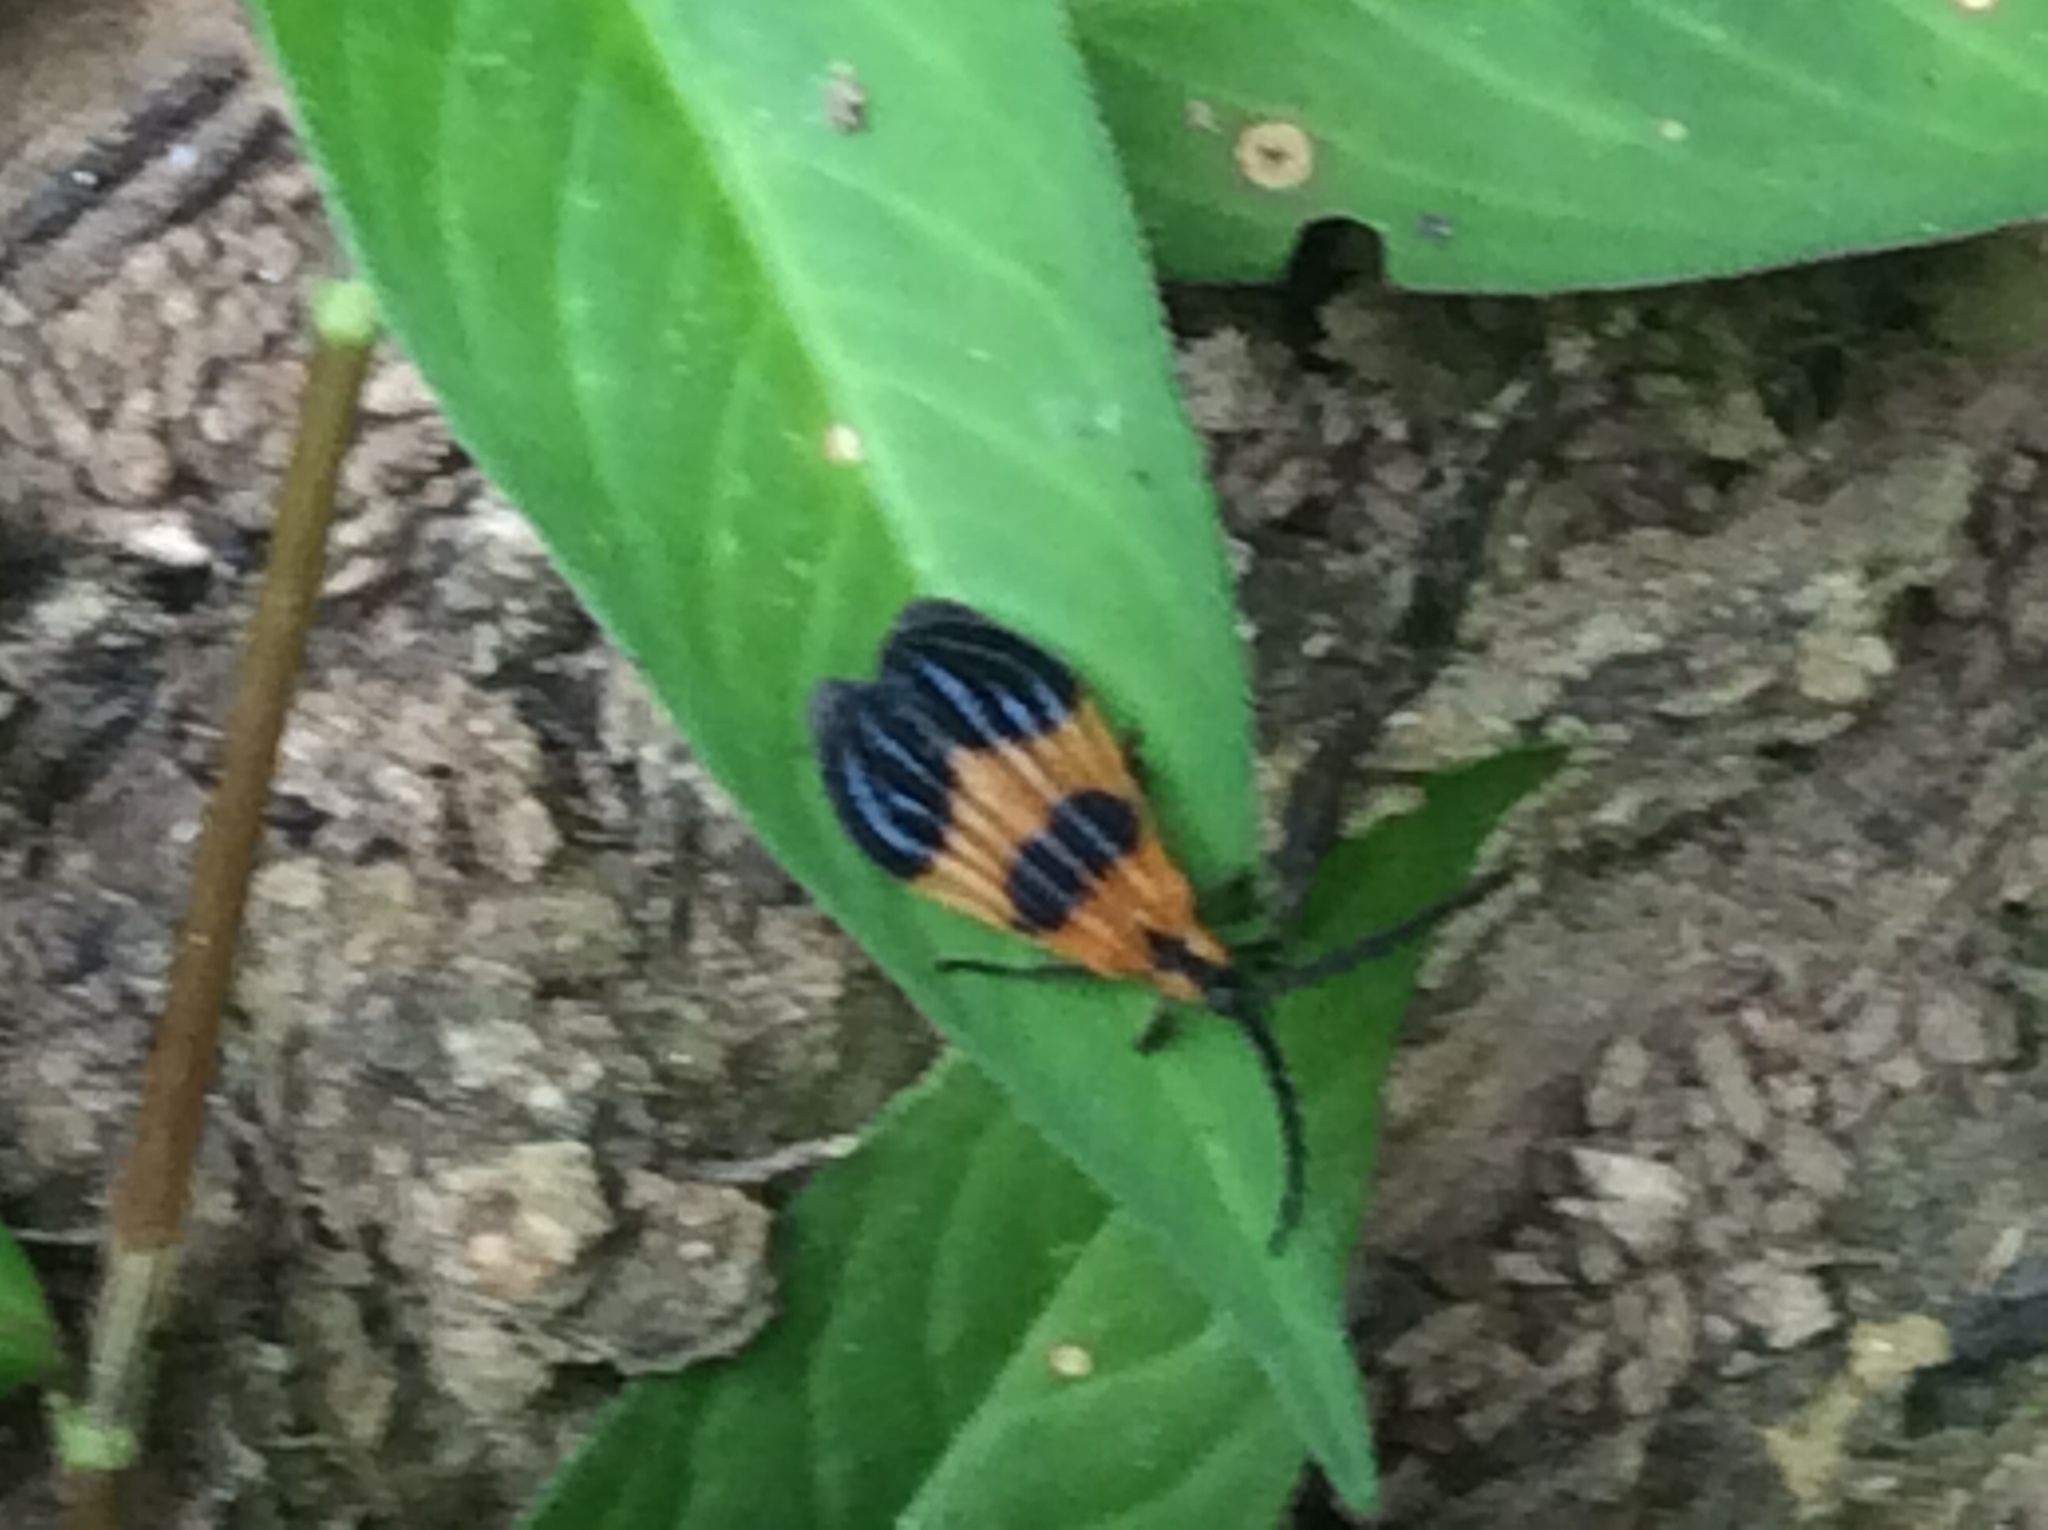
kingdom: Animalia
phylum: Arthropoda
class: Insecta
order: Coleoptera
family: Lycidae
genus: Calopteron
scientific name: Calopteron terminale
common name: End band net-winged beetle
